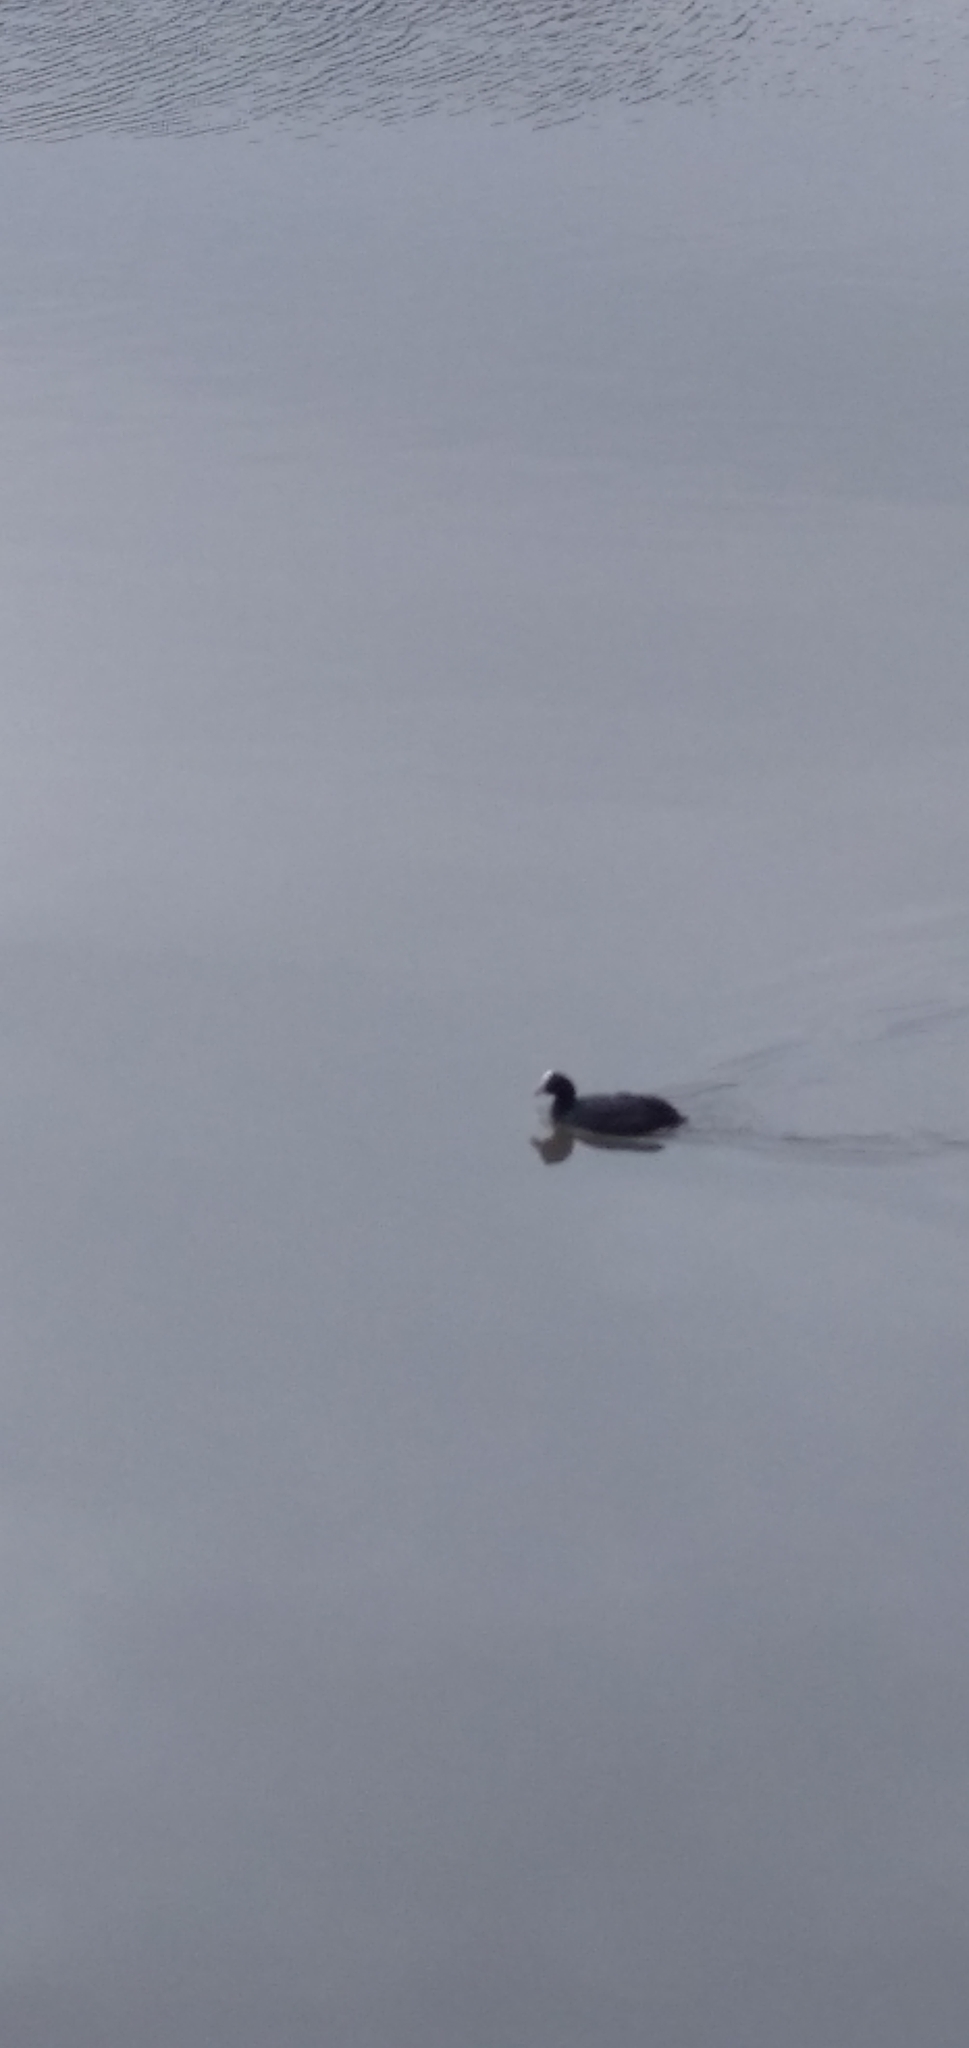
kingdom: Animalia
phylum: Chordata
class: Aves
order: Gruiformes
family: Rallidae
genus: Fulica
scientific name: Fulica atra
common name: Eurasian coot
